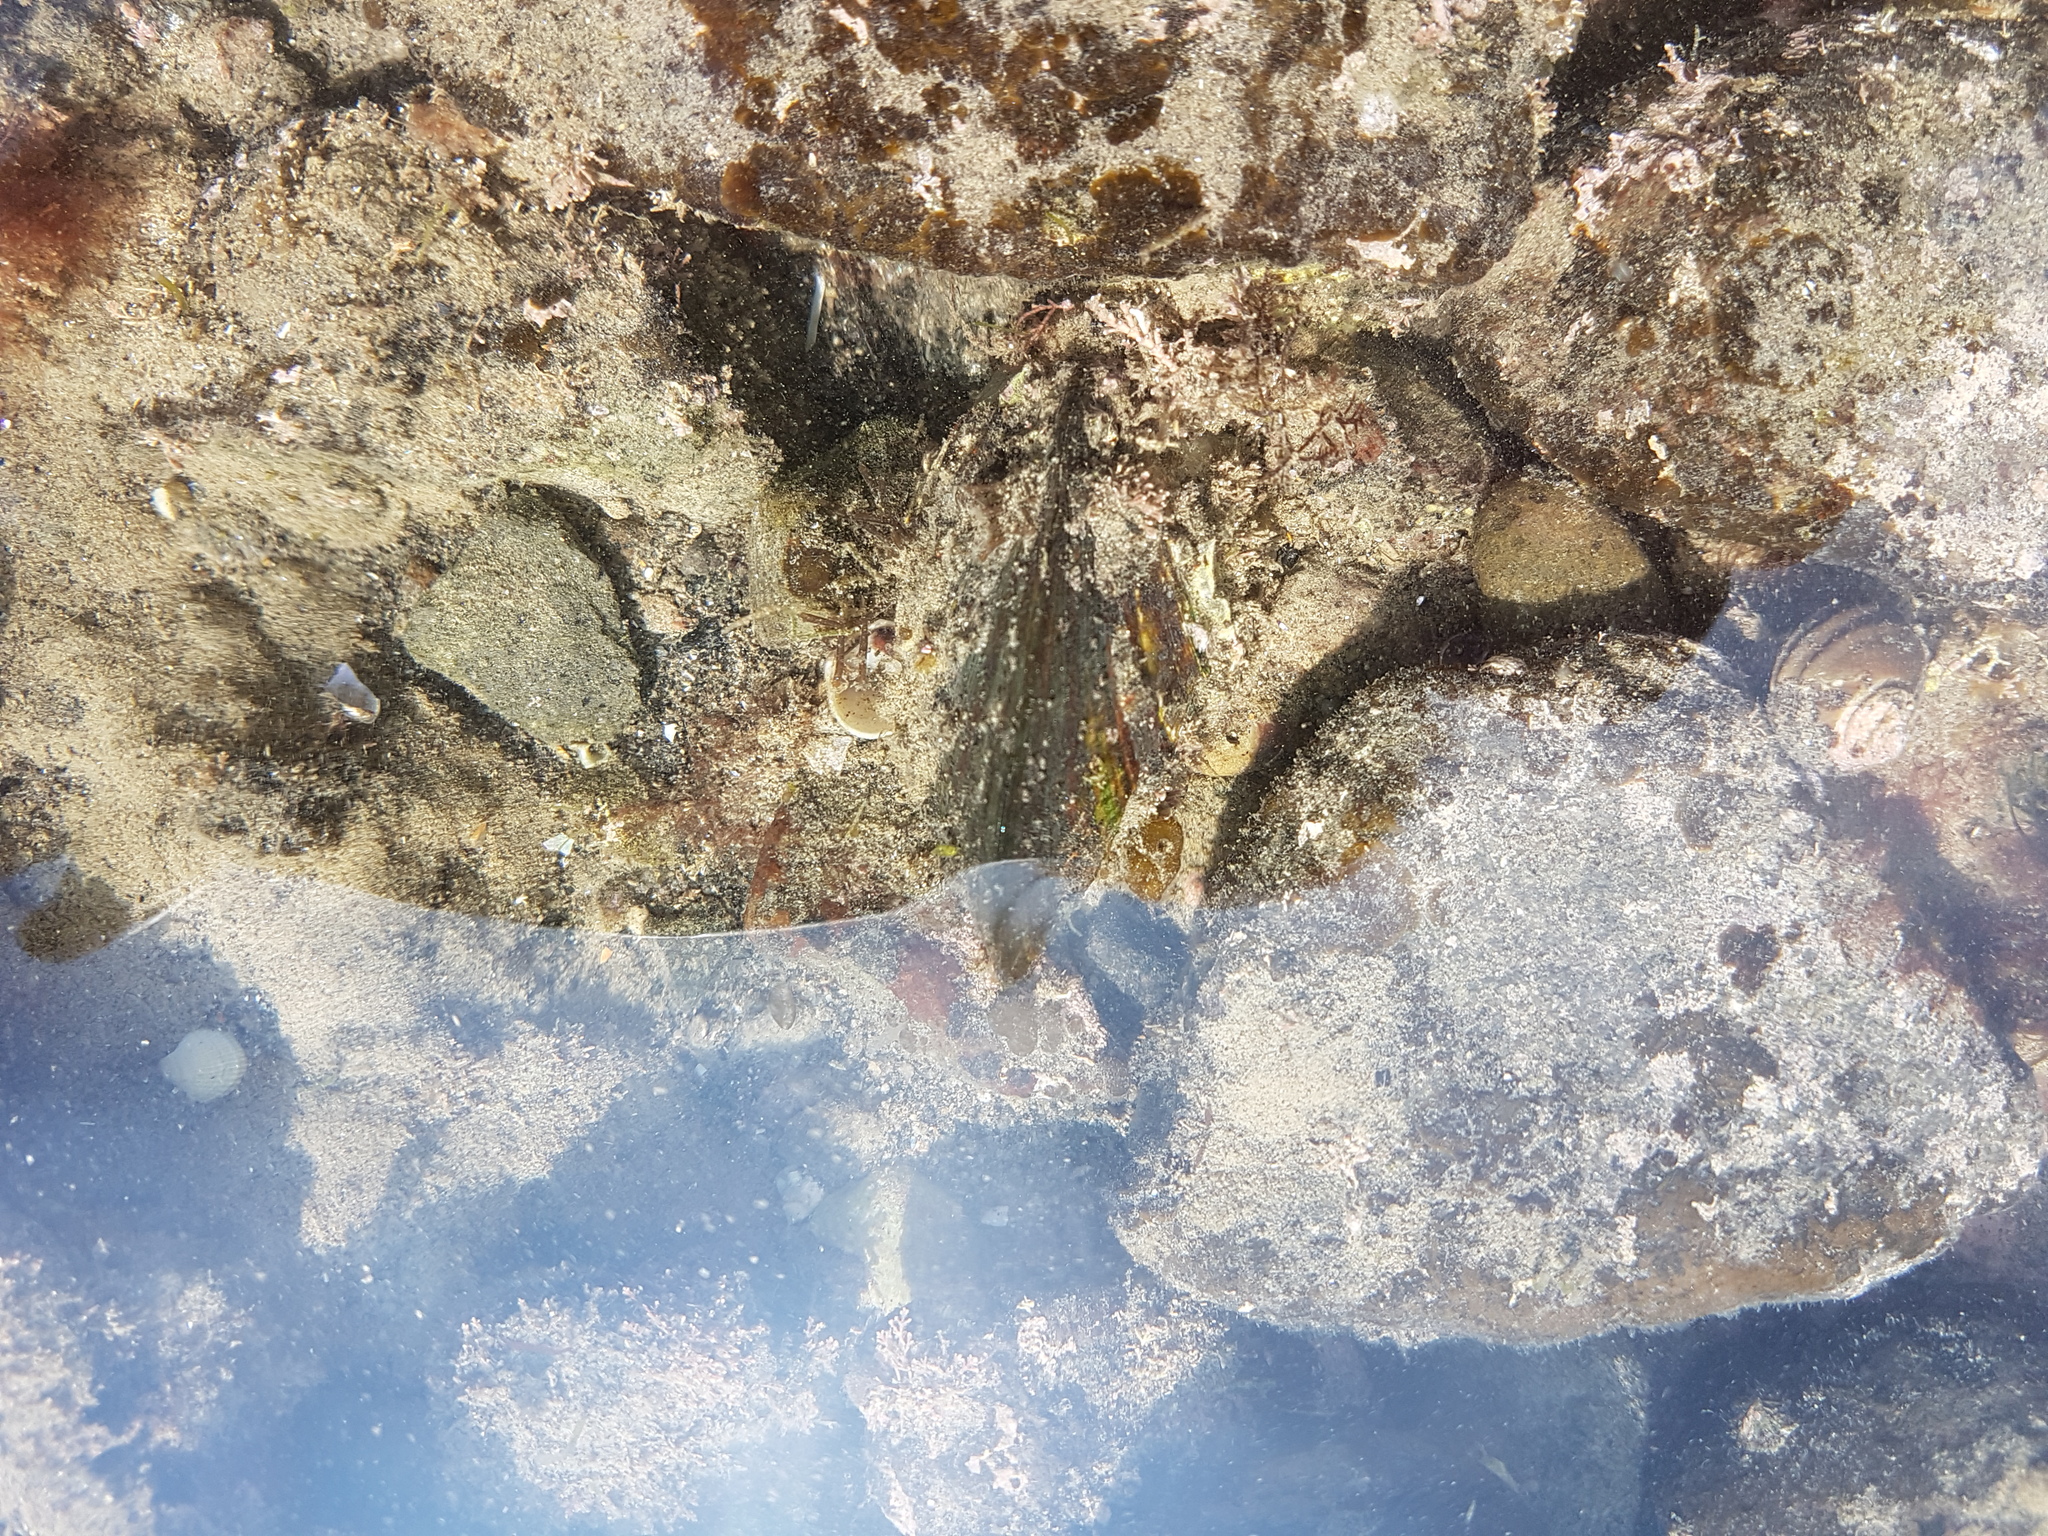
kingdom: Animalia
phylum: Mollusca
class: Bivalvia
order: Mytilida
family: Mytilidae
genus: Perna
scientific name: Perna canaliculus
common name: New zealand greenshelltm
